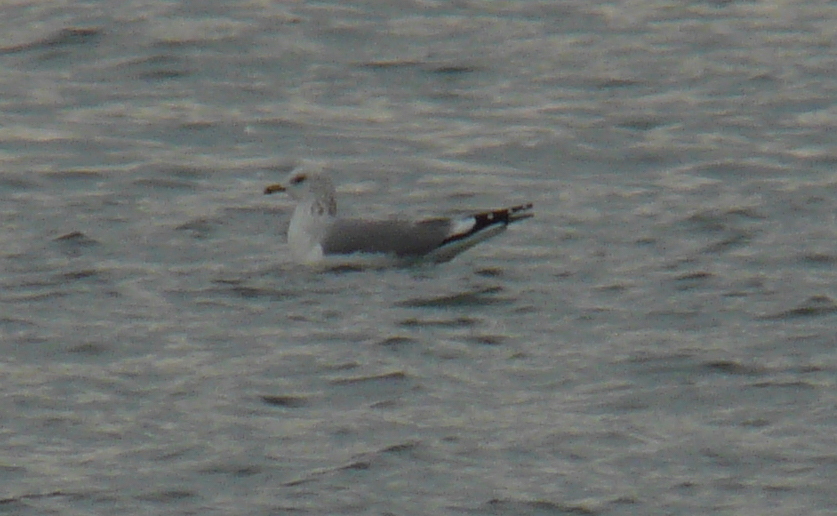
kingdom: Animalia
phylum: Chordata
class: Aves
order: Charadriiformes
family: Laridae
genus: Larus
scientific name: Larus canus
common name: Mew gull
